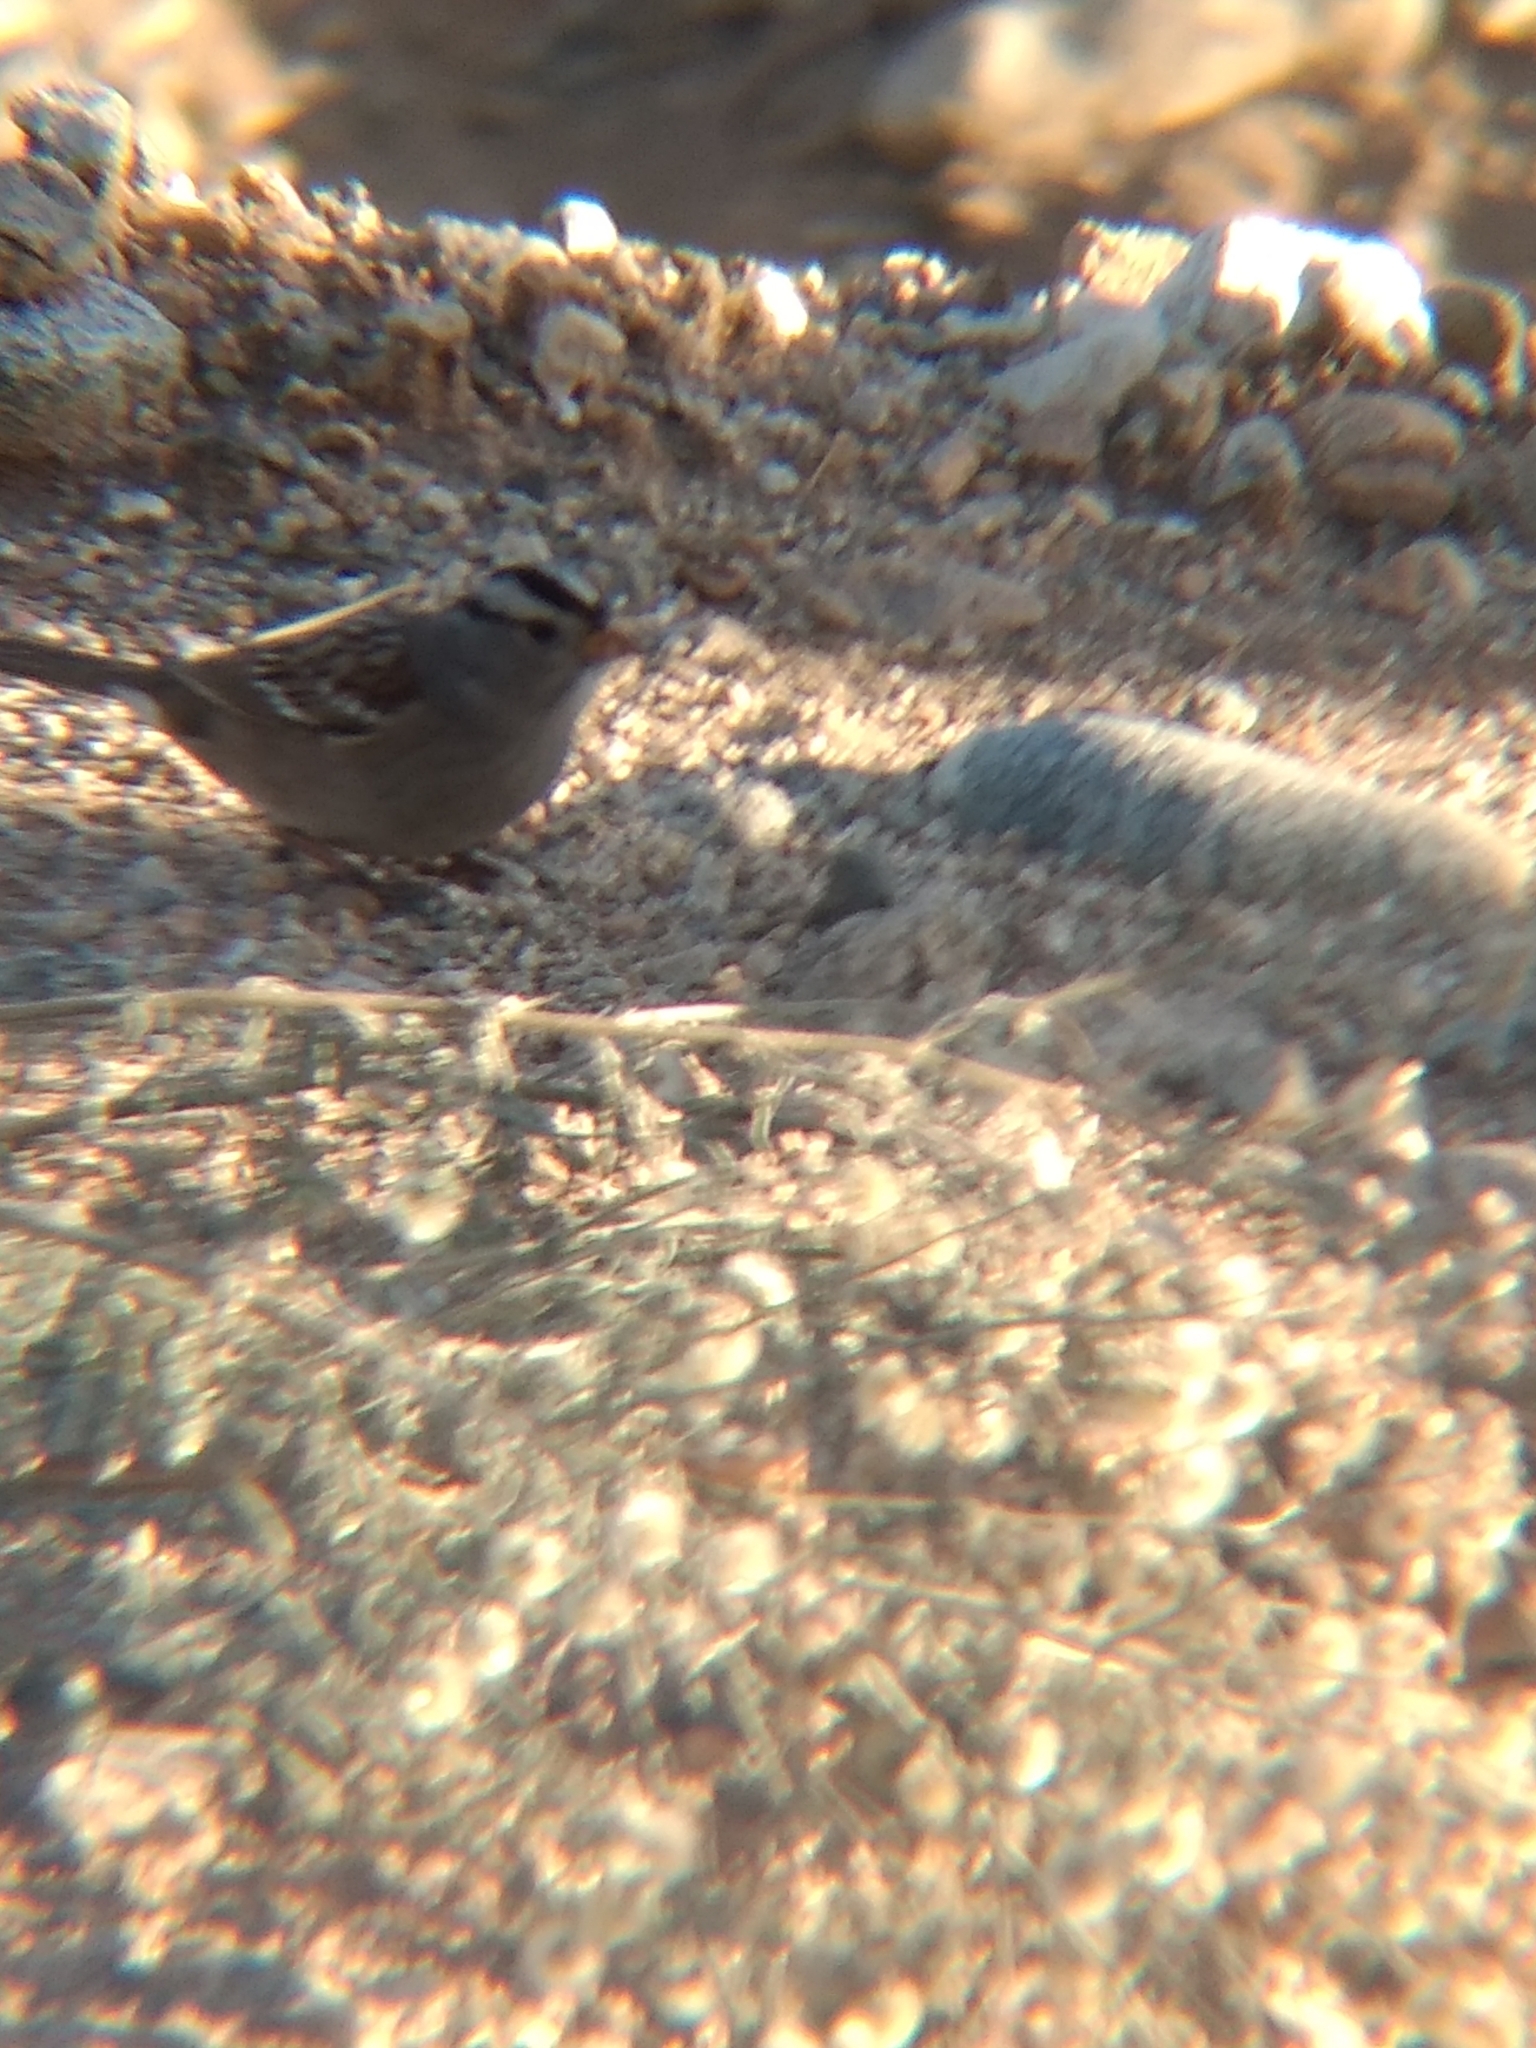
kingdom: Animalia
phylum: Chordata
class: Aves
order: Passeriformes
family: Passerellidae
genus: Zonotrichia
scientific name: Zonotrichia leucophrys
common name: White-crowned sparrow
